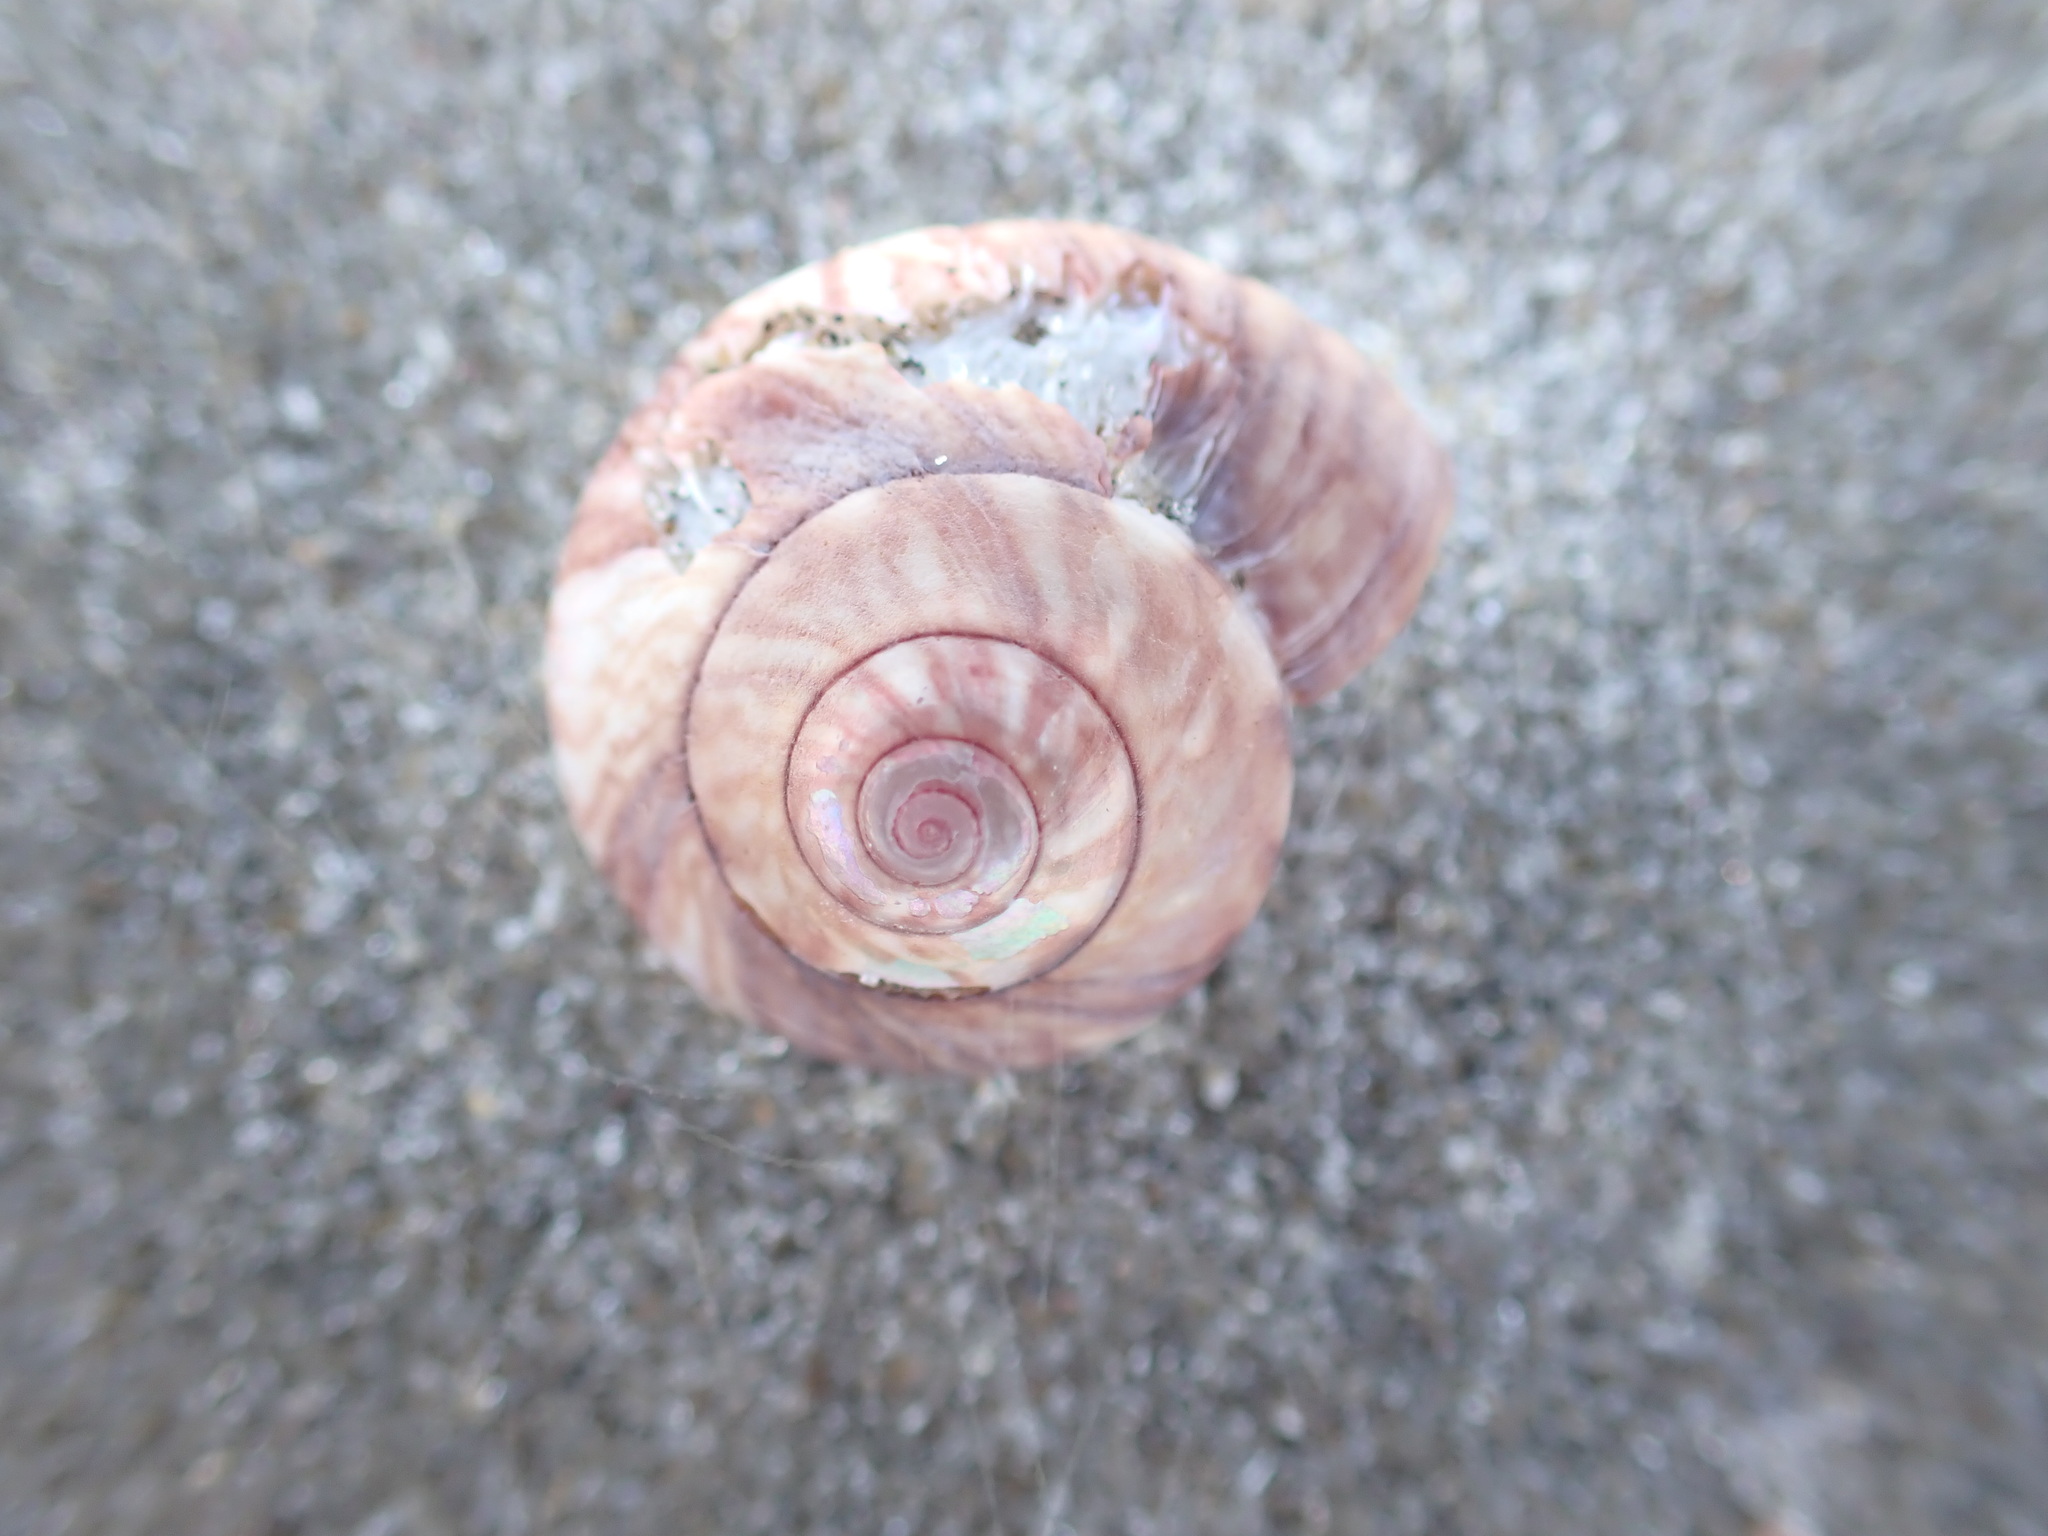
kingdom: Animalia
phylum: Mollusca
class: Gastropoda
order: Trochida
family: Trochidae
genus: Zethalia
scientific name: Zethalia zelandica
